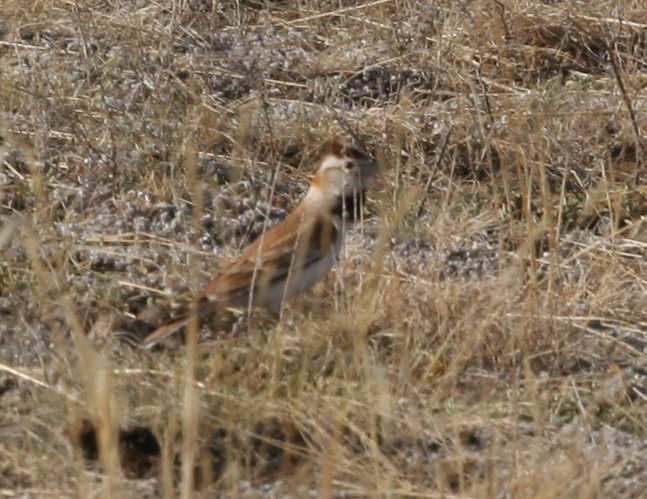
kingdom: Animalia
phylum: Chordata
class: Aves
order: Passeriformes
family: Alaudidae
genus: Melanocorypha
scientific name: Melanocorypha mongolica
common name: Mongolian lark
